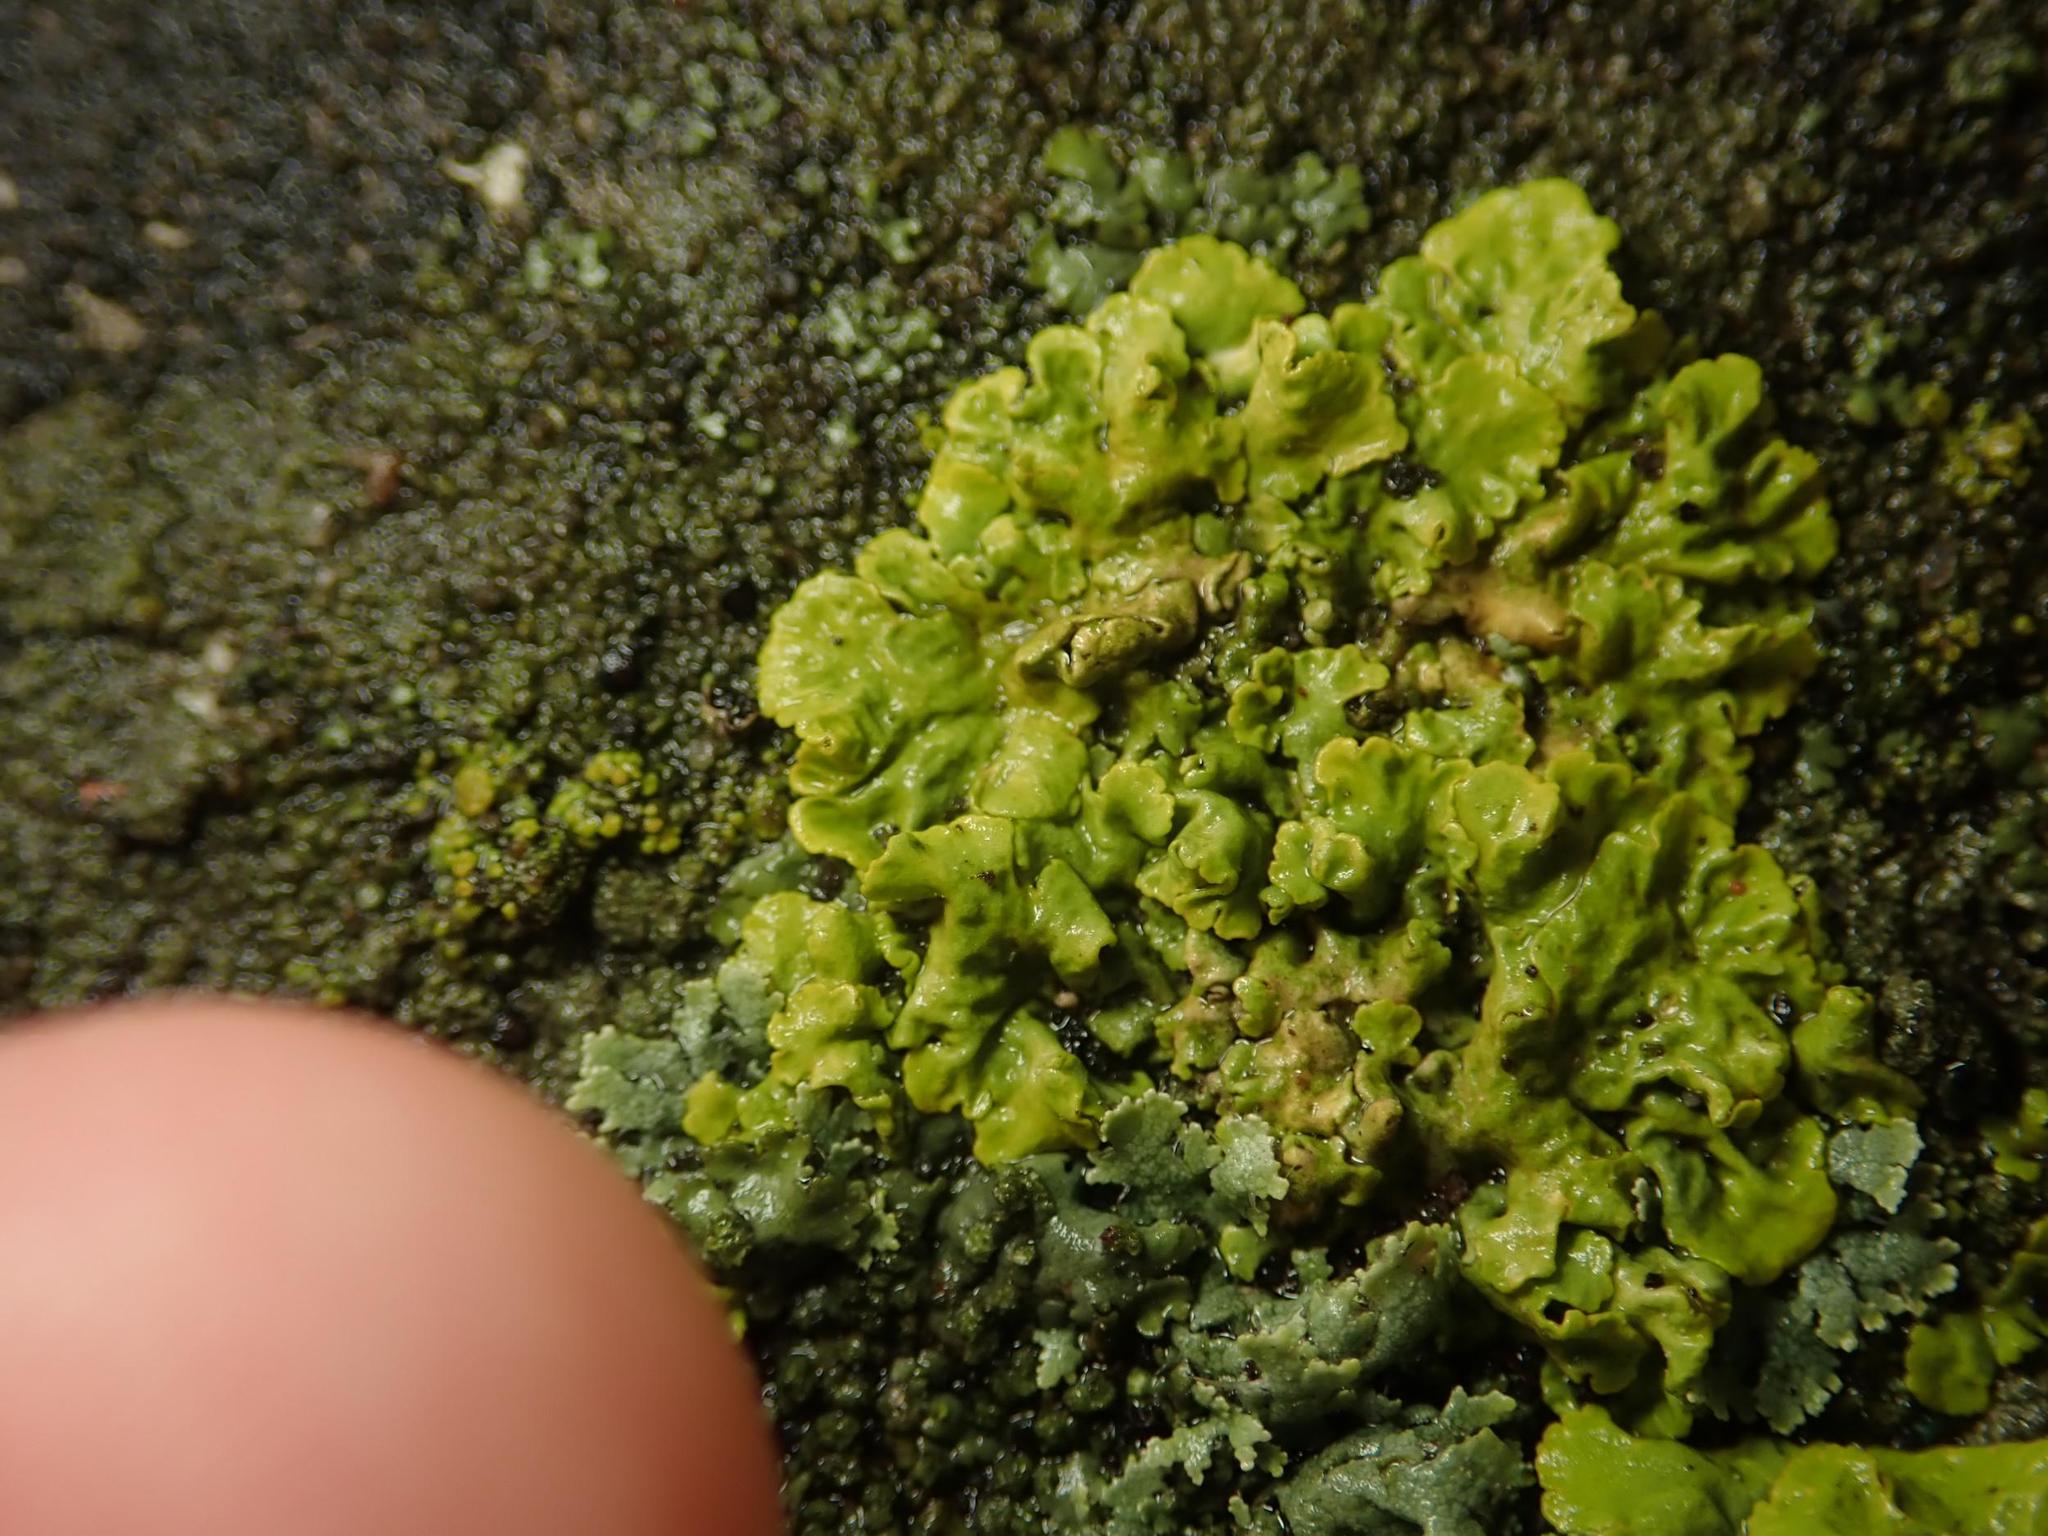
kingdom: Fungi
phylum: Ascomycota
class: Lecanoromycetes
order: Teloschistales
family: Teloschistaceae
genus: Xanthoria
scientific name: Xanthoria parietina
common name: Common orange lichen
